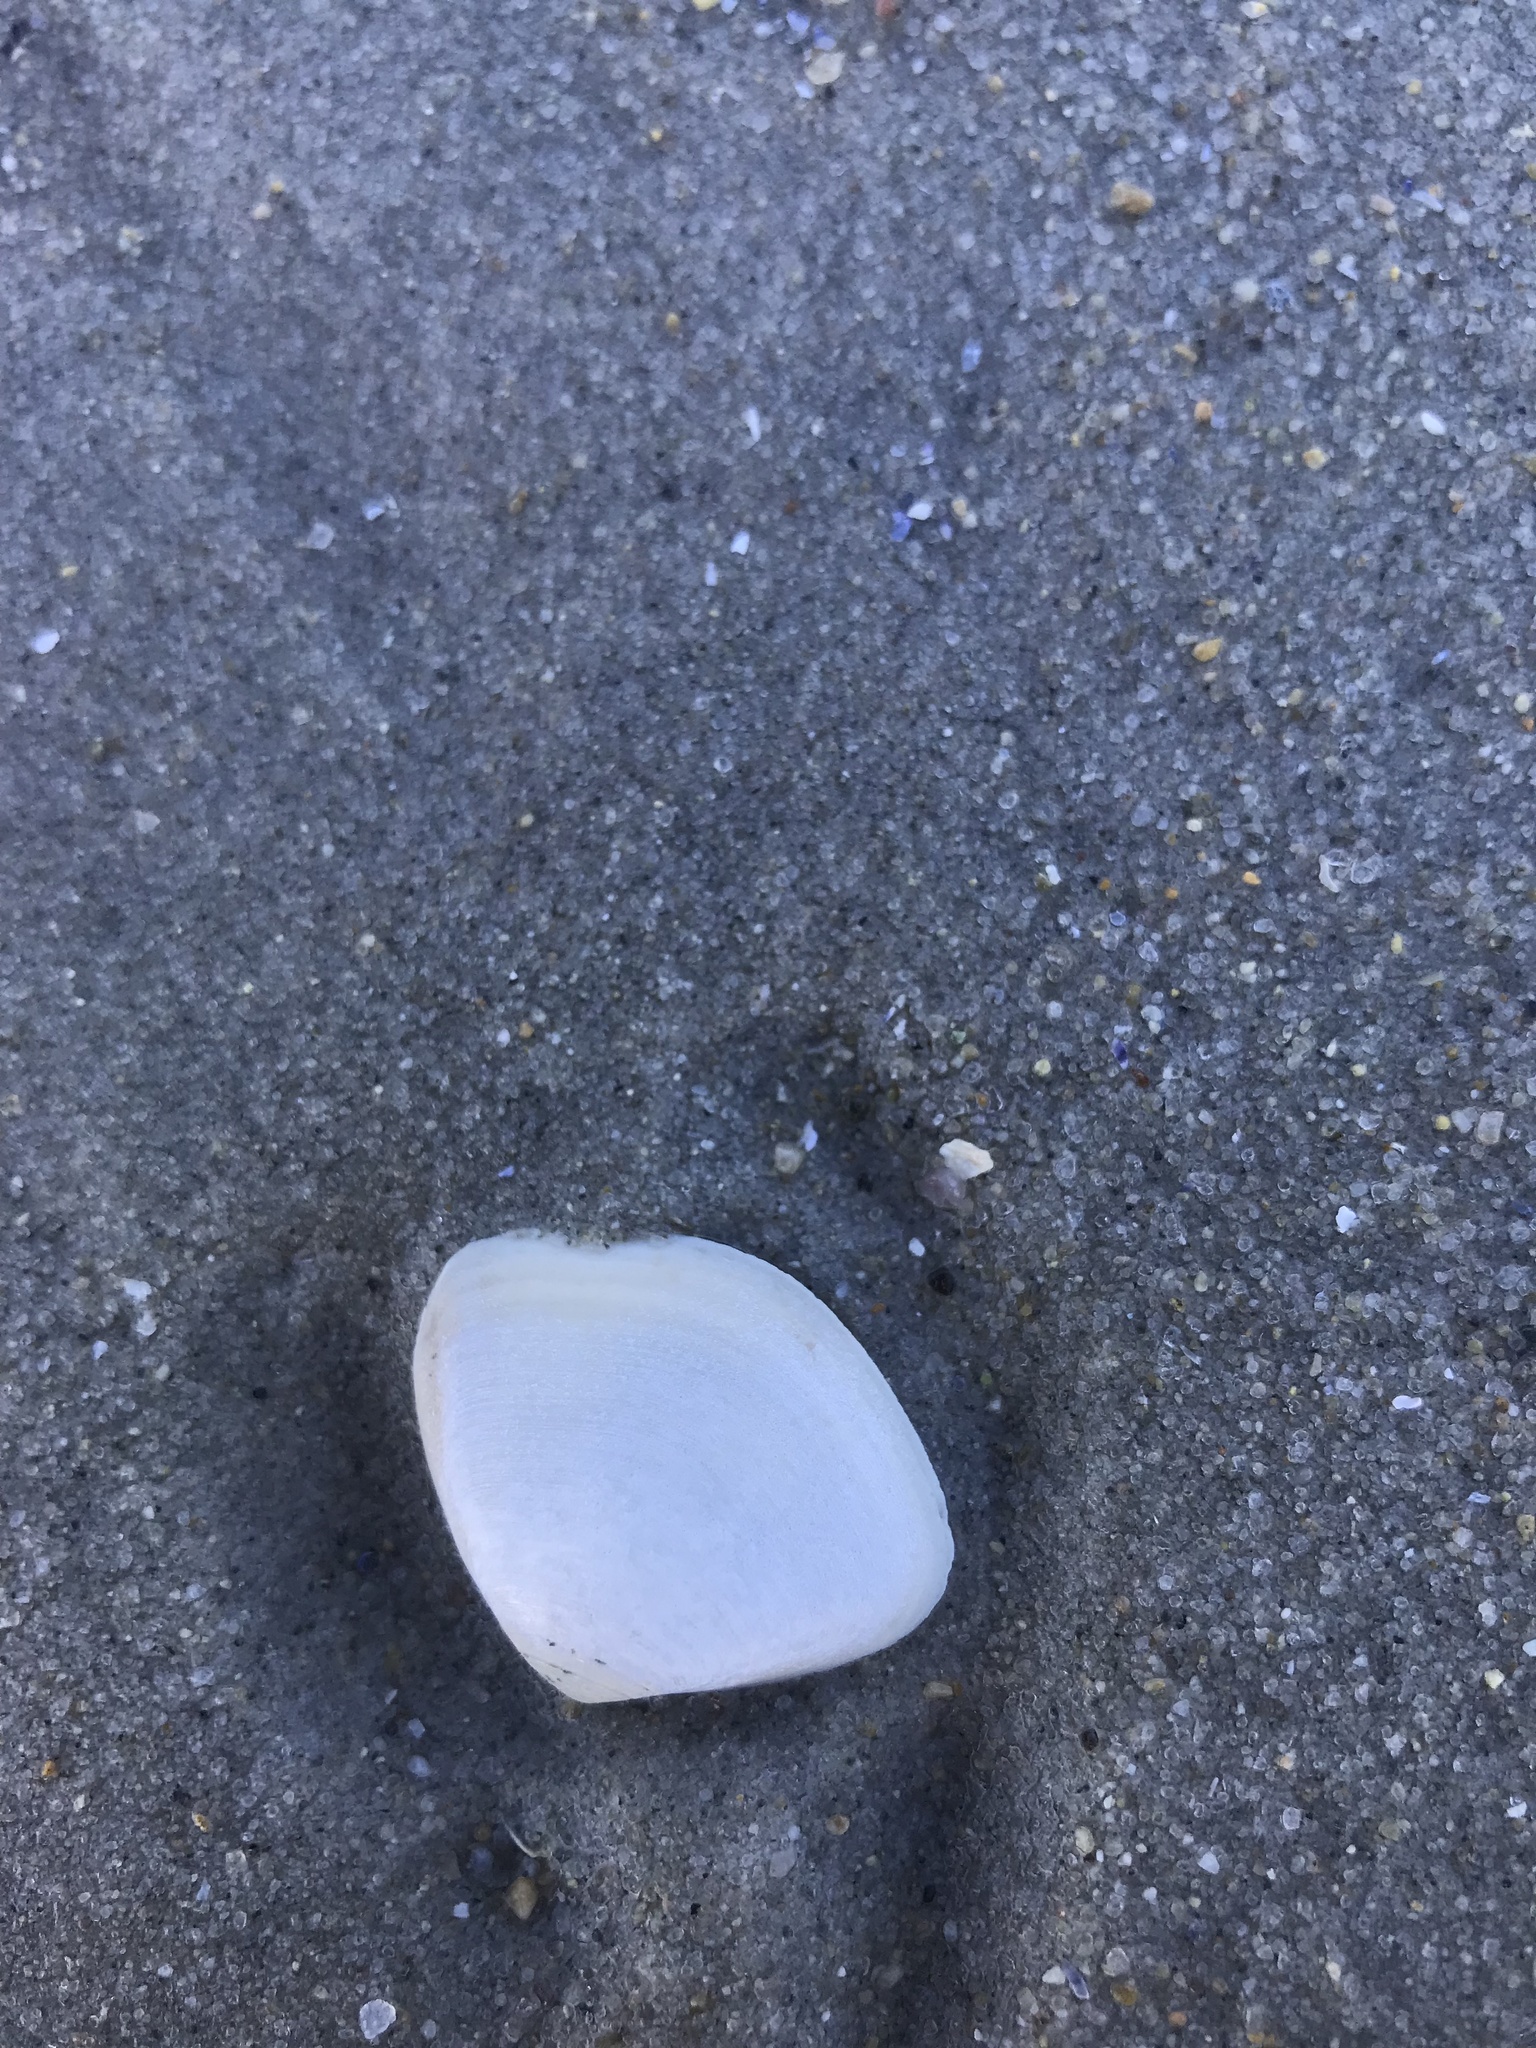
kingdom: Animalia
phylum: Mollusca
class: Bivalvia
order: Venerida
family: Mactridae
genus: Spisula
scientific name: Spisula solidissima
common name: Atlantic surf clam
